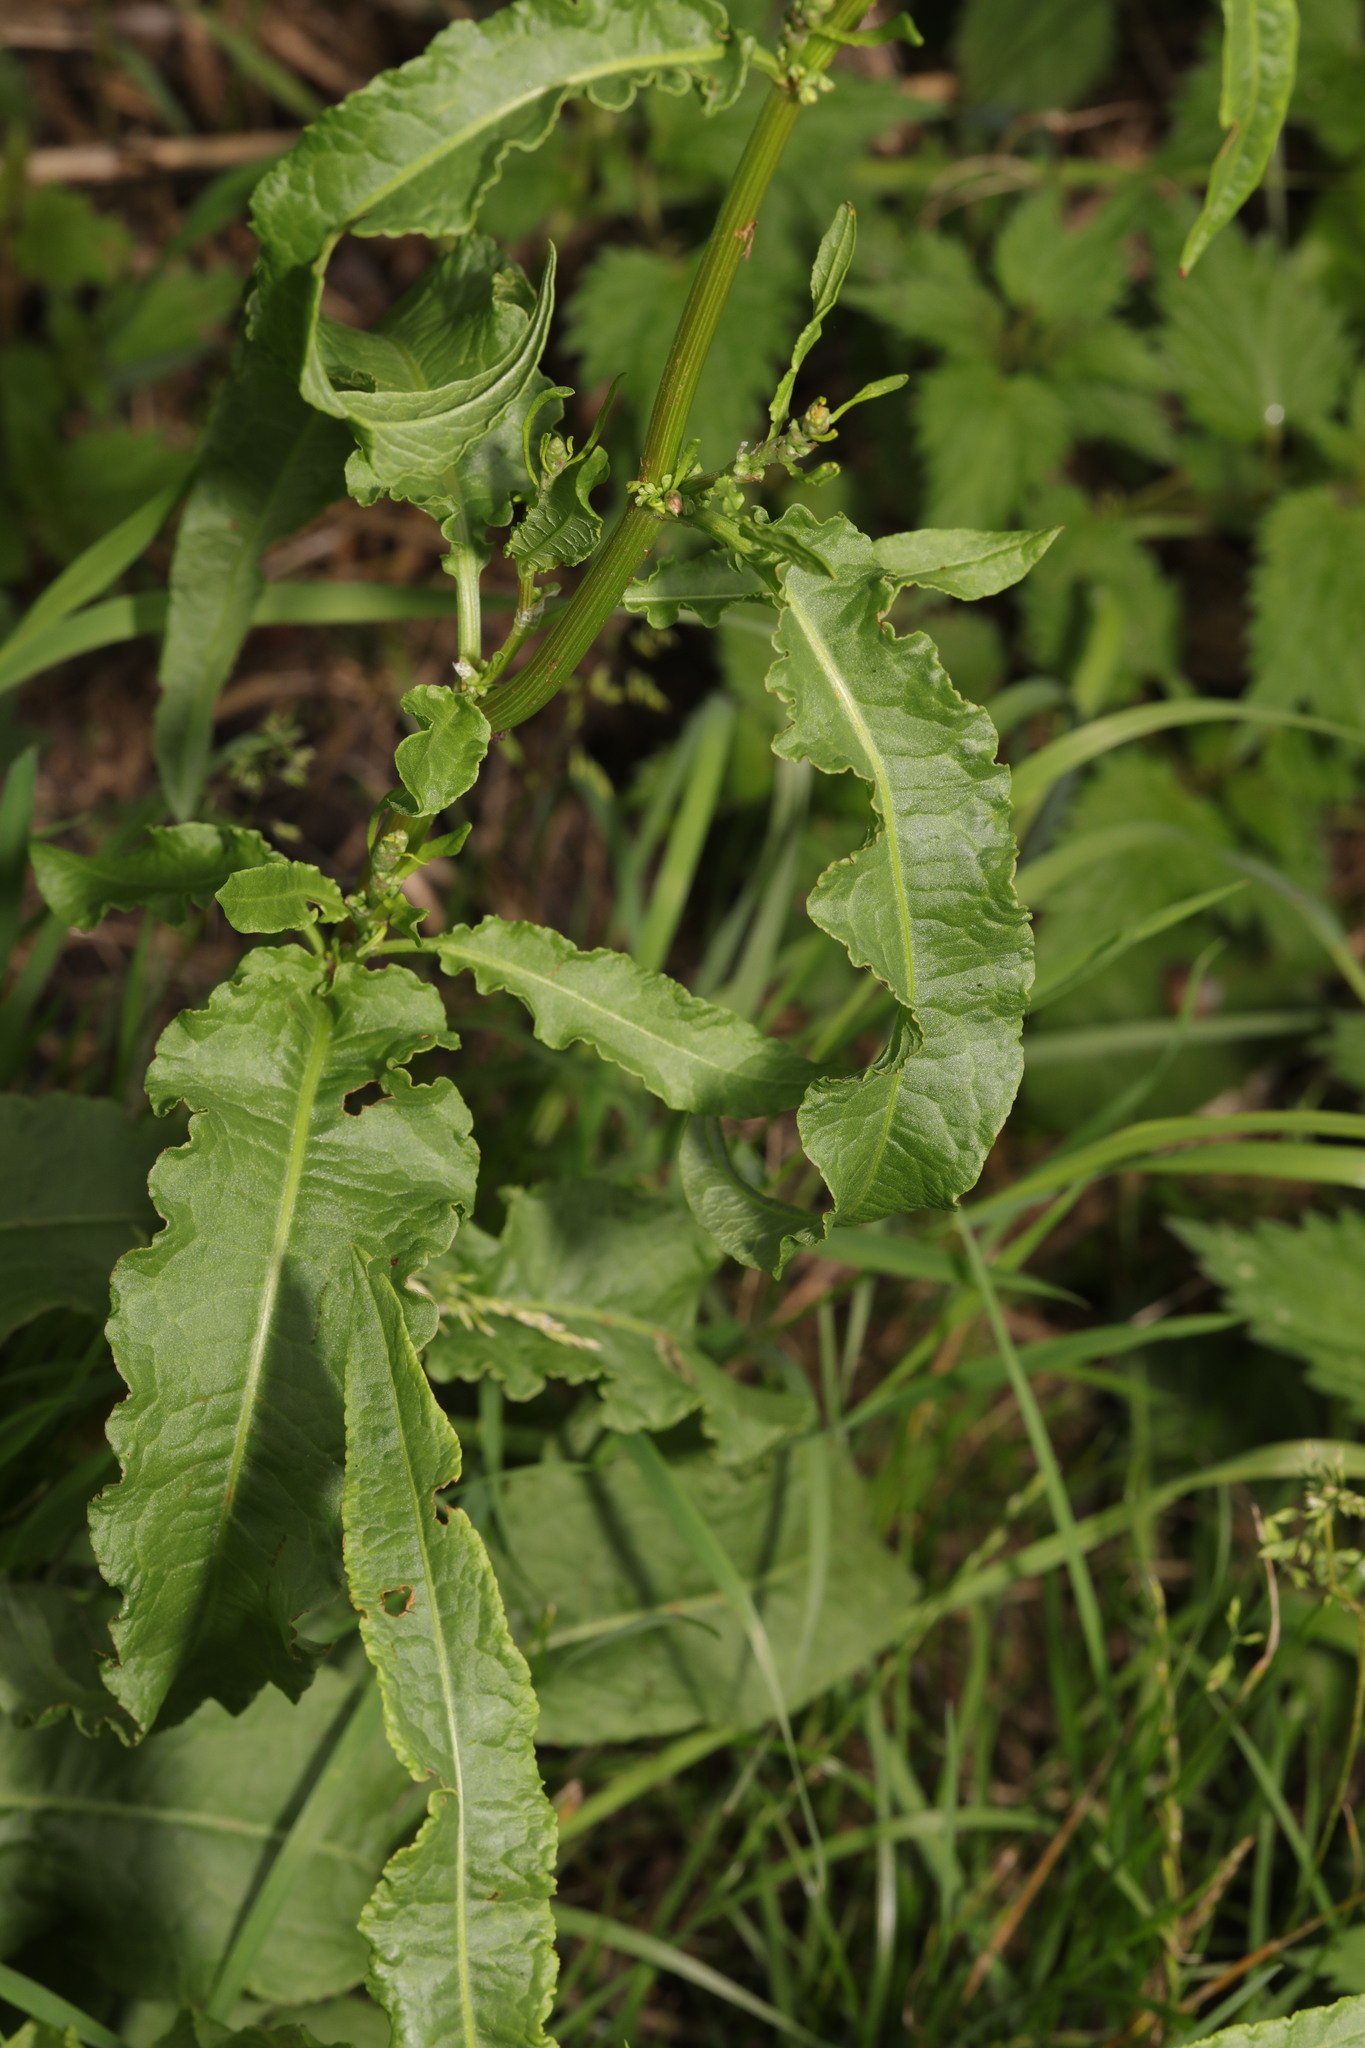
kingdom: Plantae
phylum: Tracheophyta
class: Magnoliopsida
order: Caryophyllales
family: Polygonaceae
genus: Rumex
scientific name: Rumex crispus
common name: Curled dock
